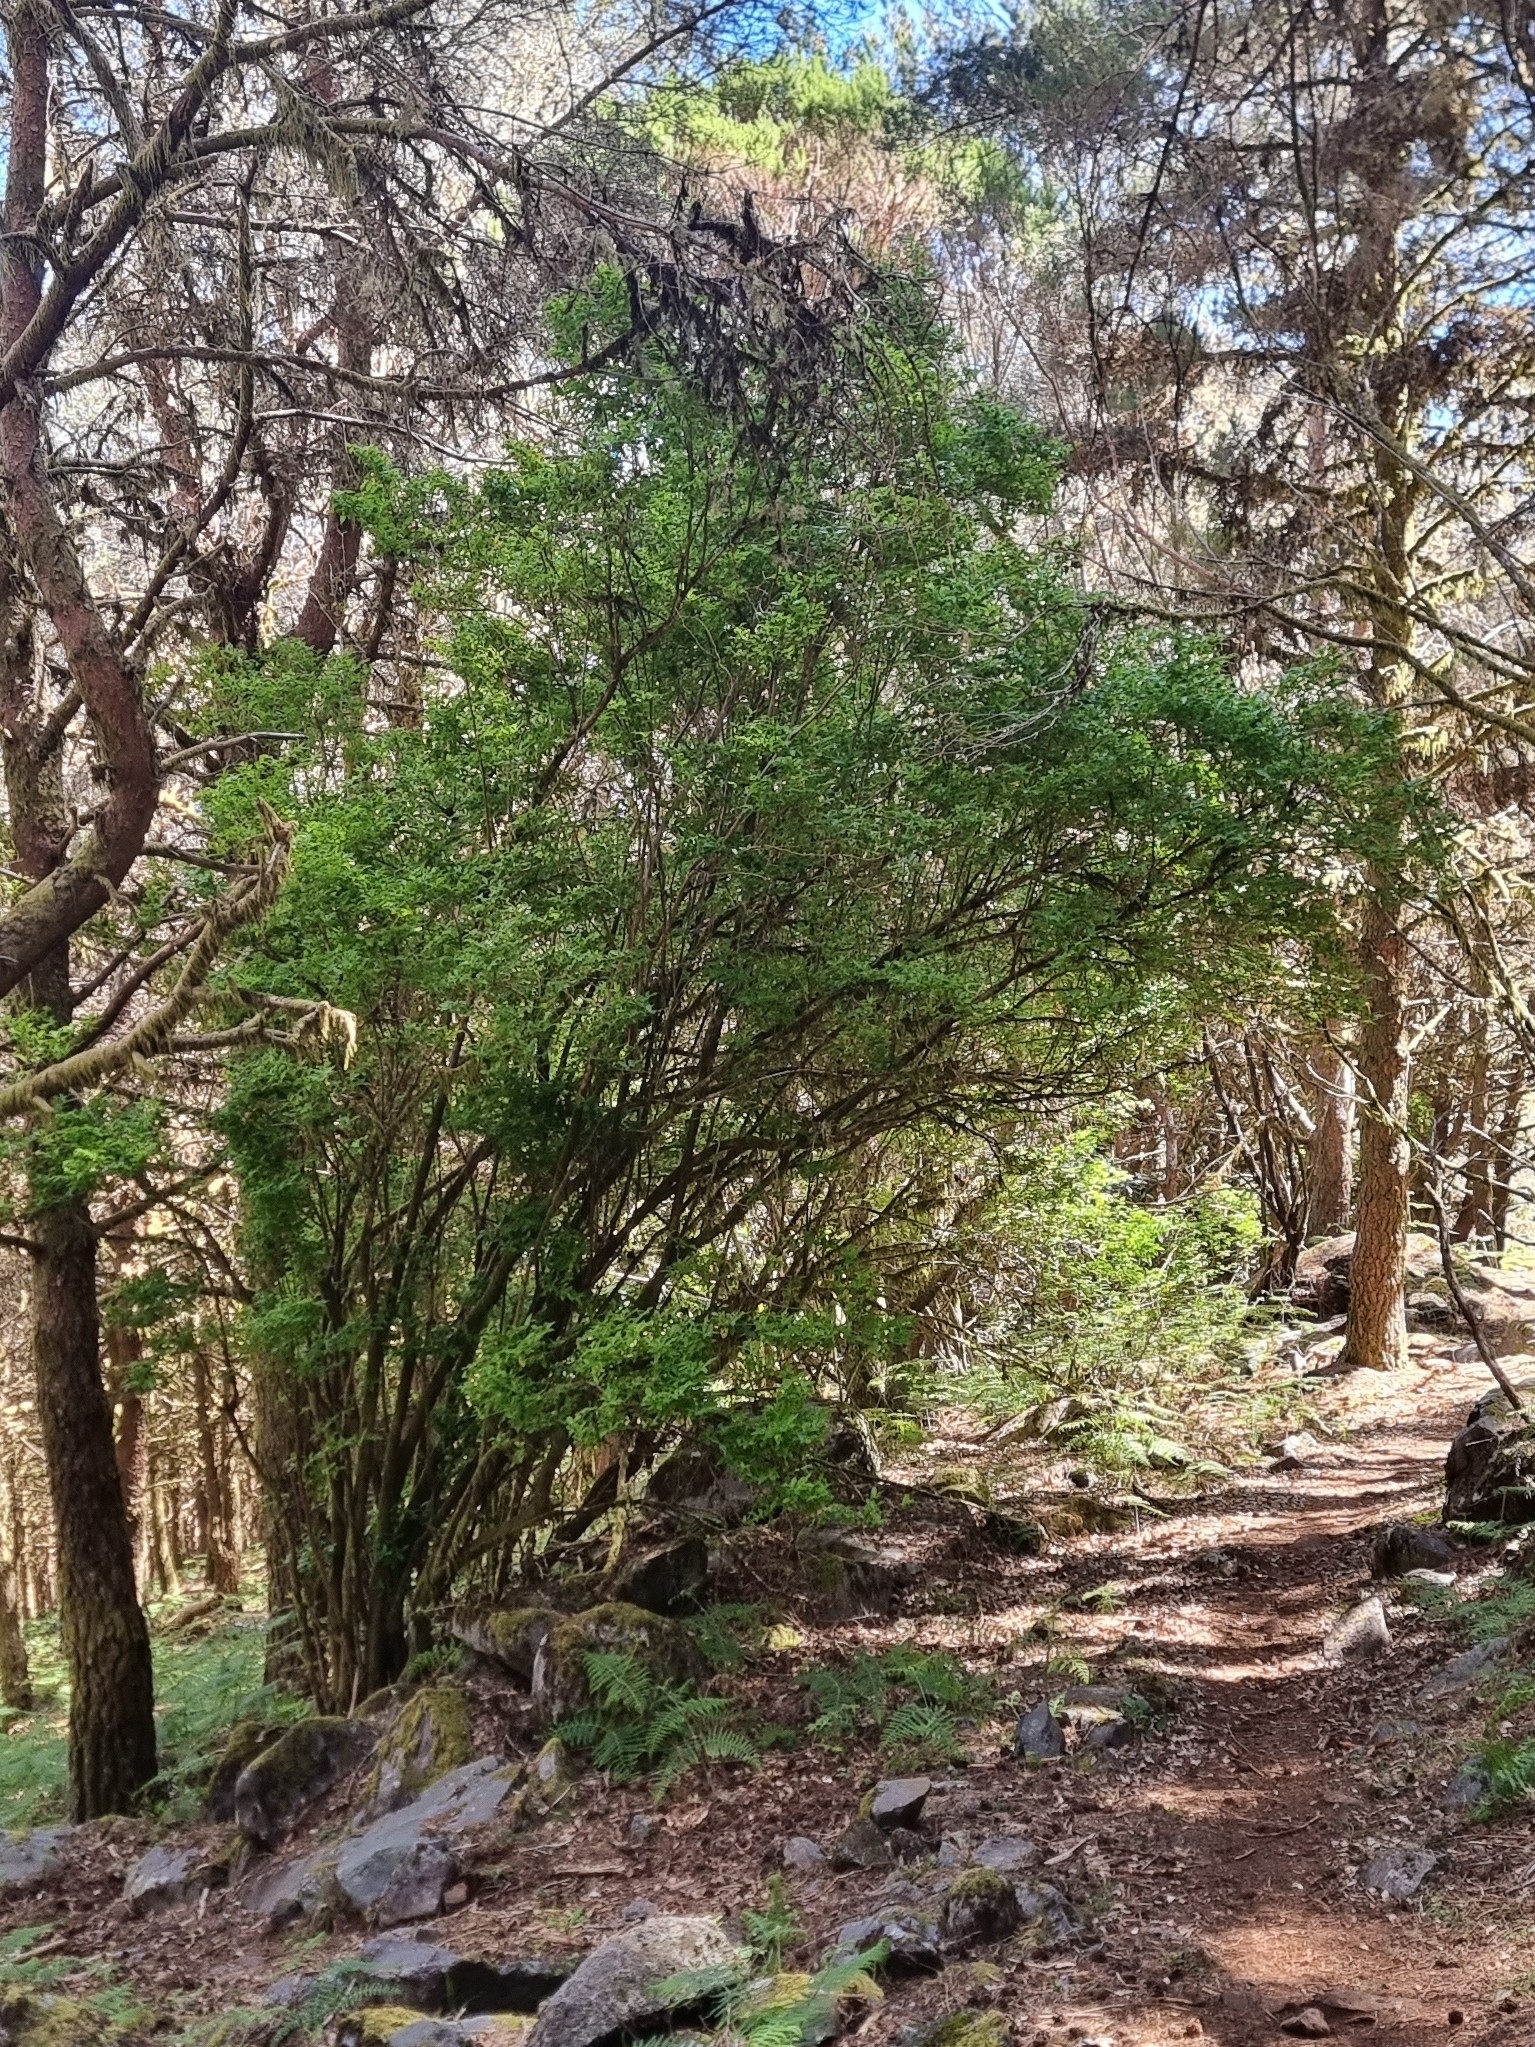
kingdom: Plantae
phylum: Tracheophyta
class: Magnoliopsida
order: Ericales
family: Ericaceae
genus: Vaccinium
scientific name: Vaccinium padifolium
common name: Madeiran blueberry
